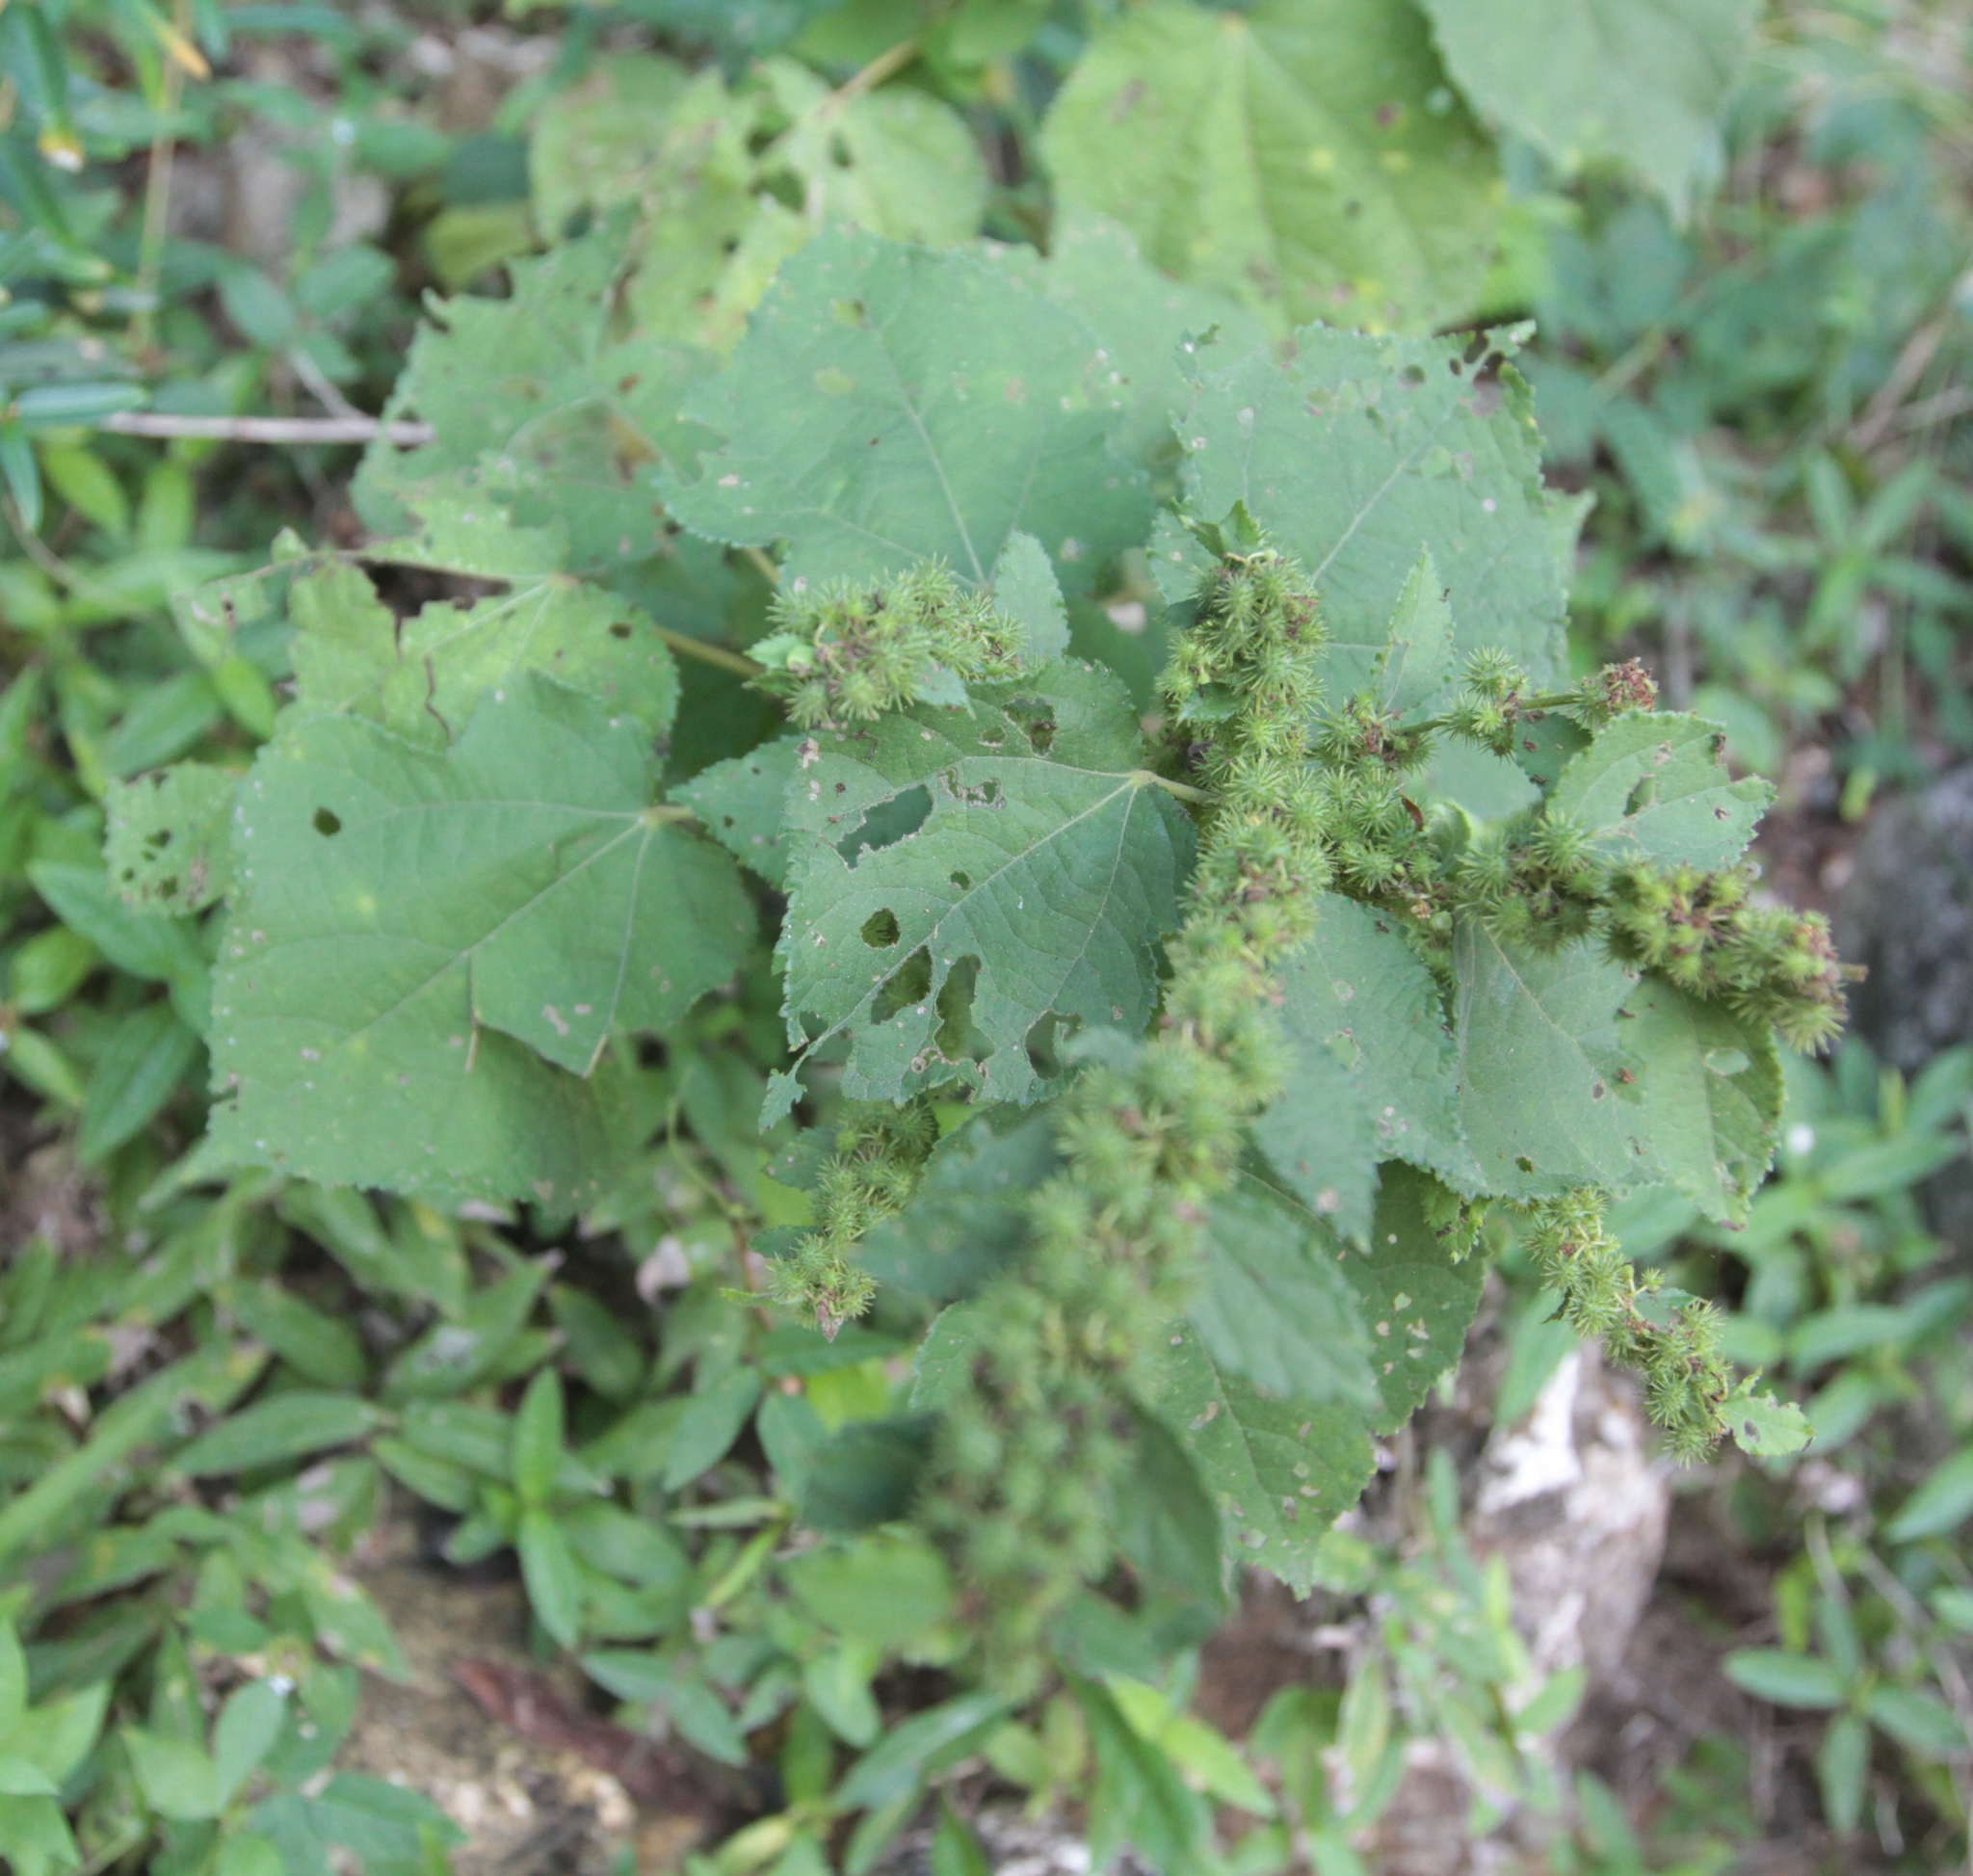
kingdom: Plantae
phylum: Tracheophyta
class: Magnoliopsida
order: Malvales
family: Malvaceae
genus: Triumfetta
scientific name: Triumfetta semitriloba
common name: Sacramento burbark
